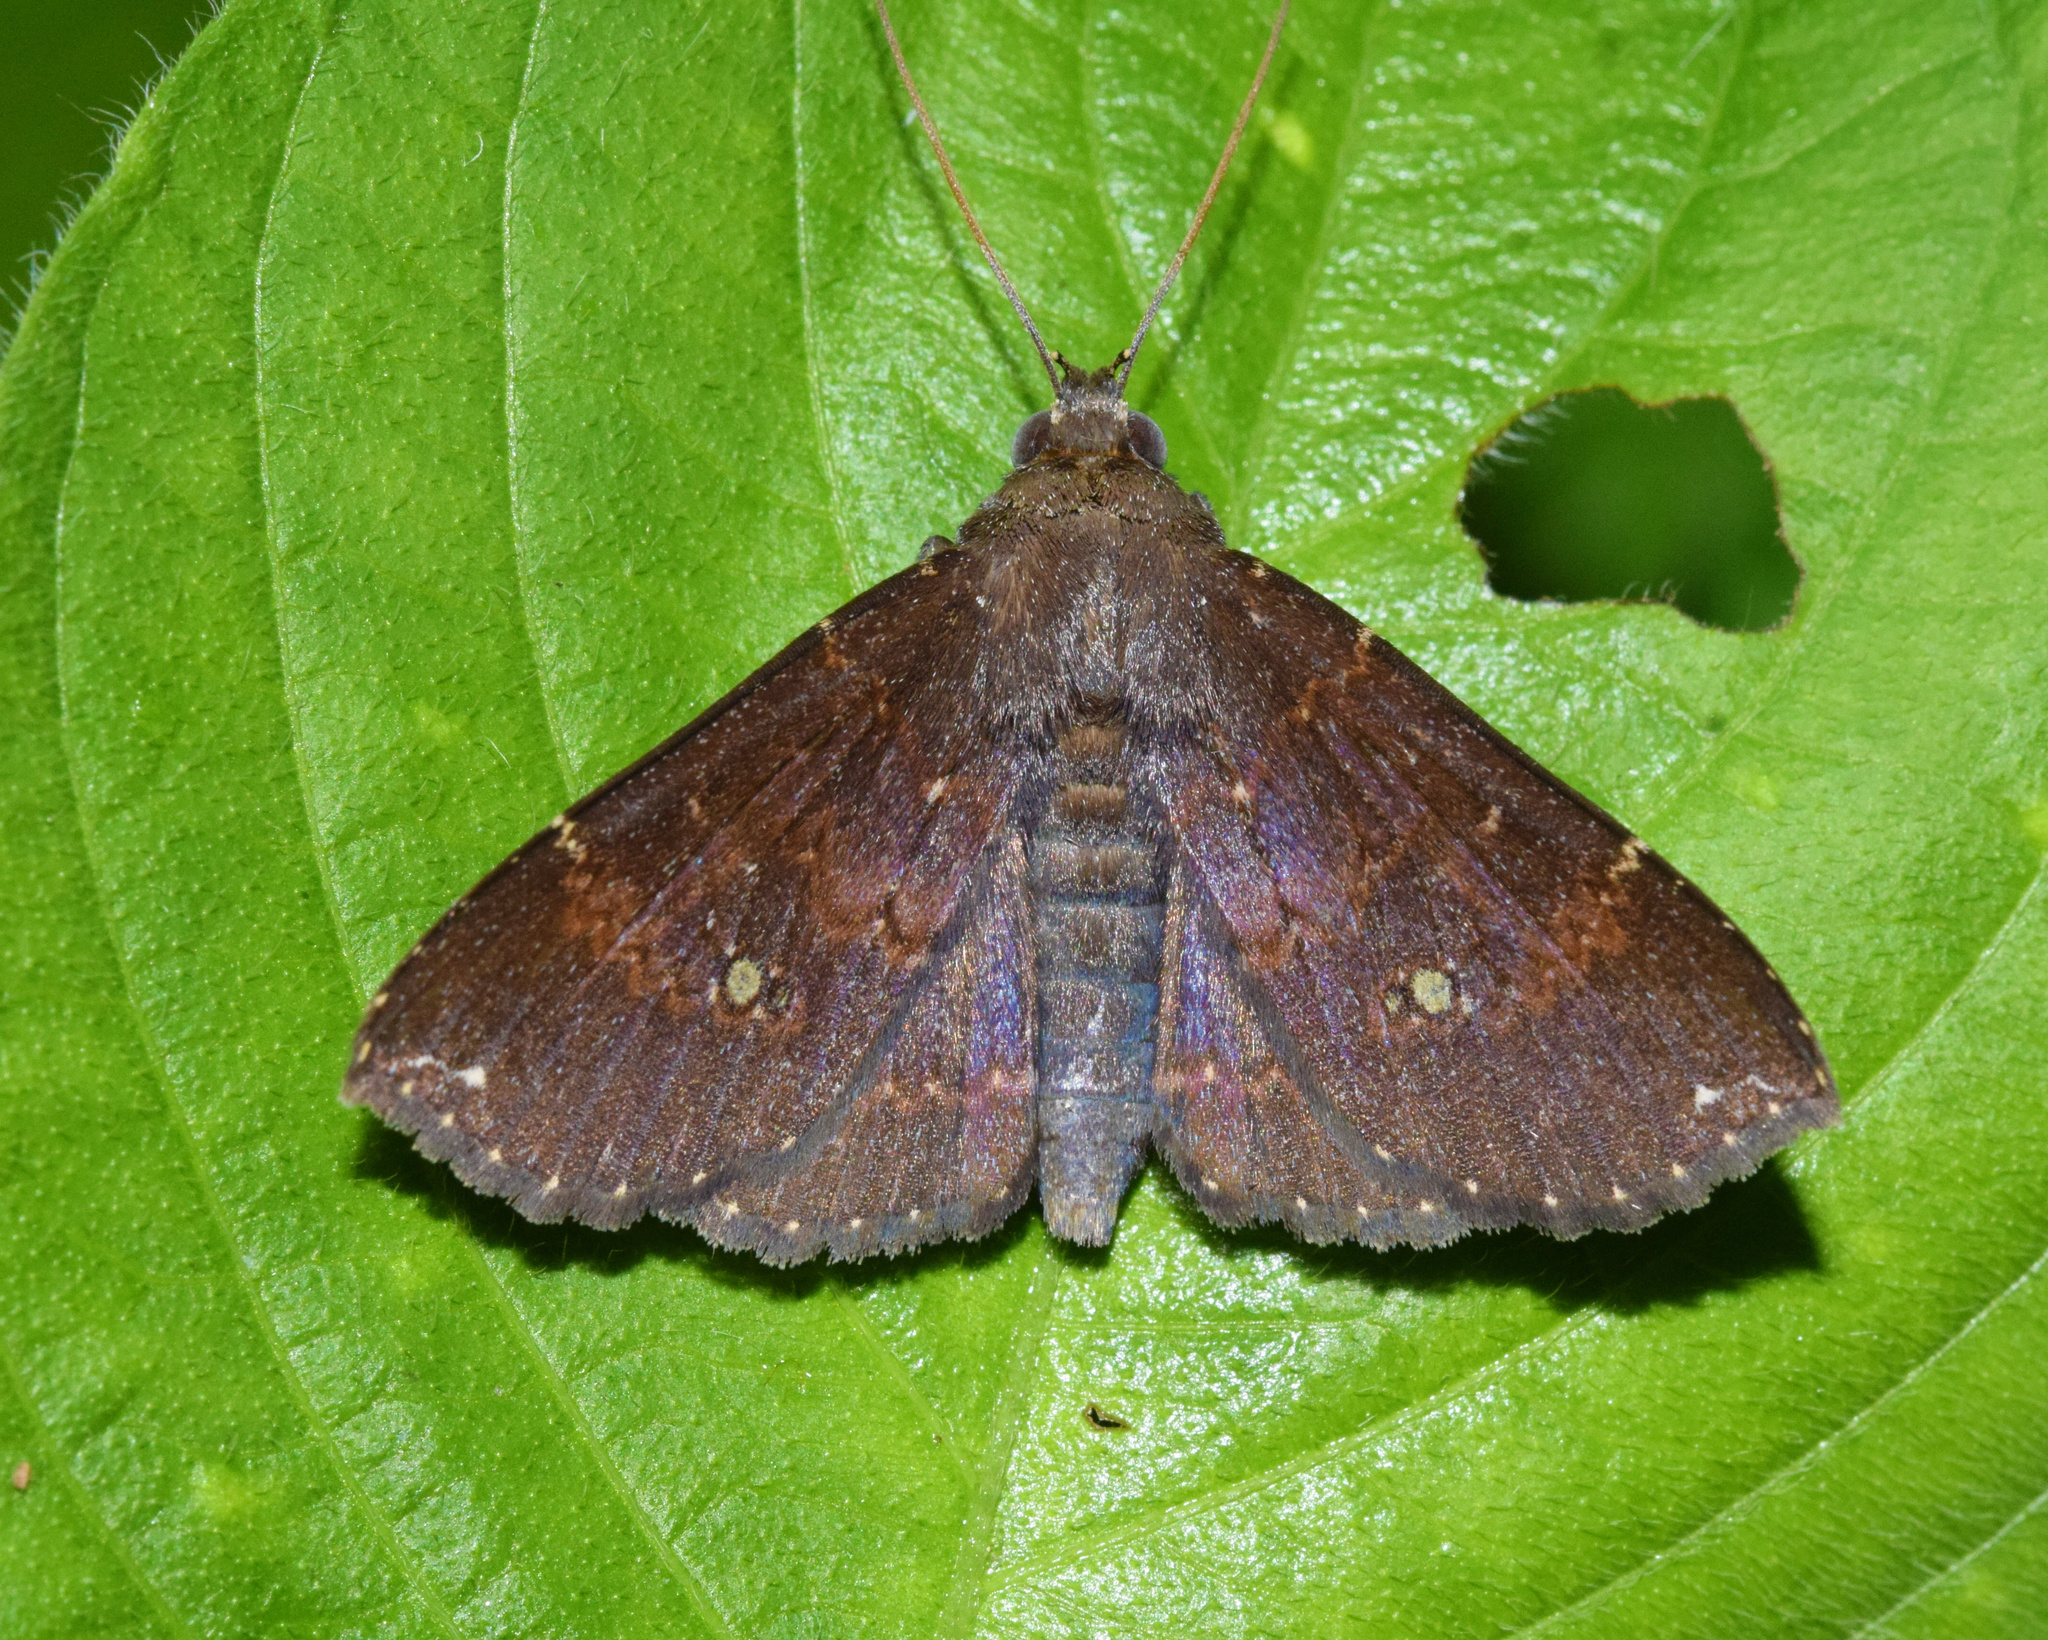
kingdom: Animalia
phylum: Arthropoda
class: Insecta
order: Lepidoptera
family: Erebidae
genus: Platyja
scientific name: Platyja vacillans
